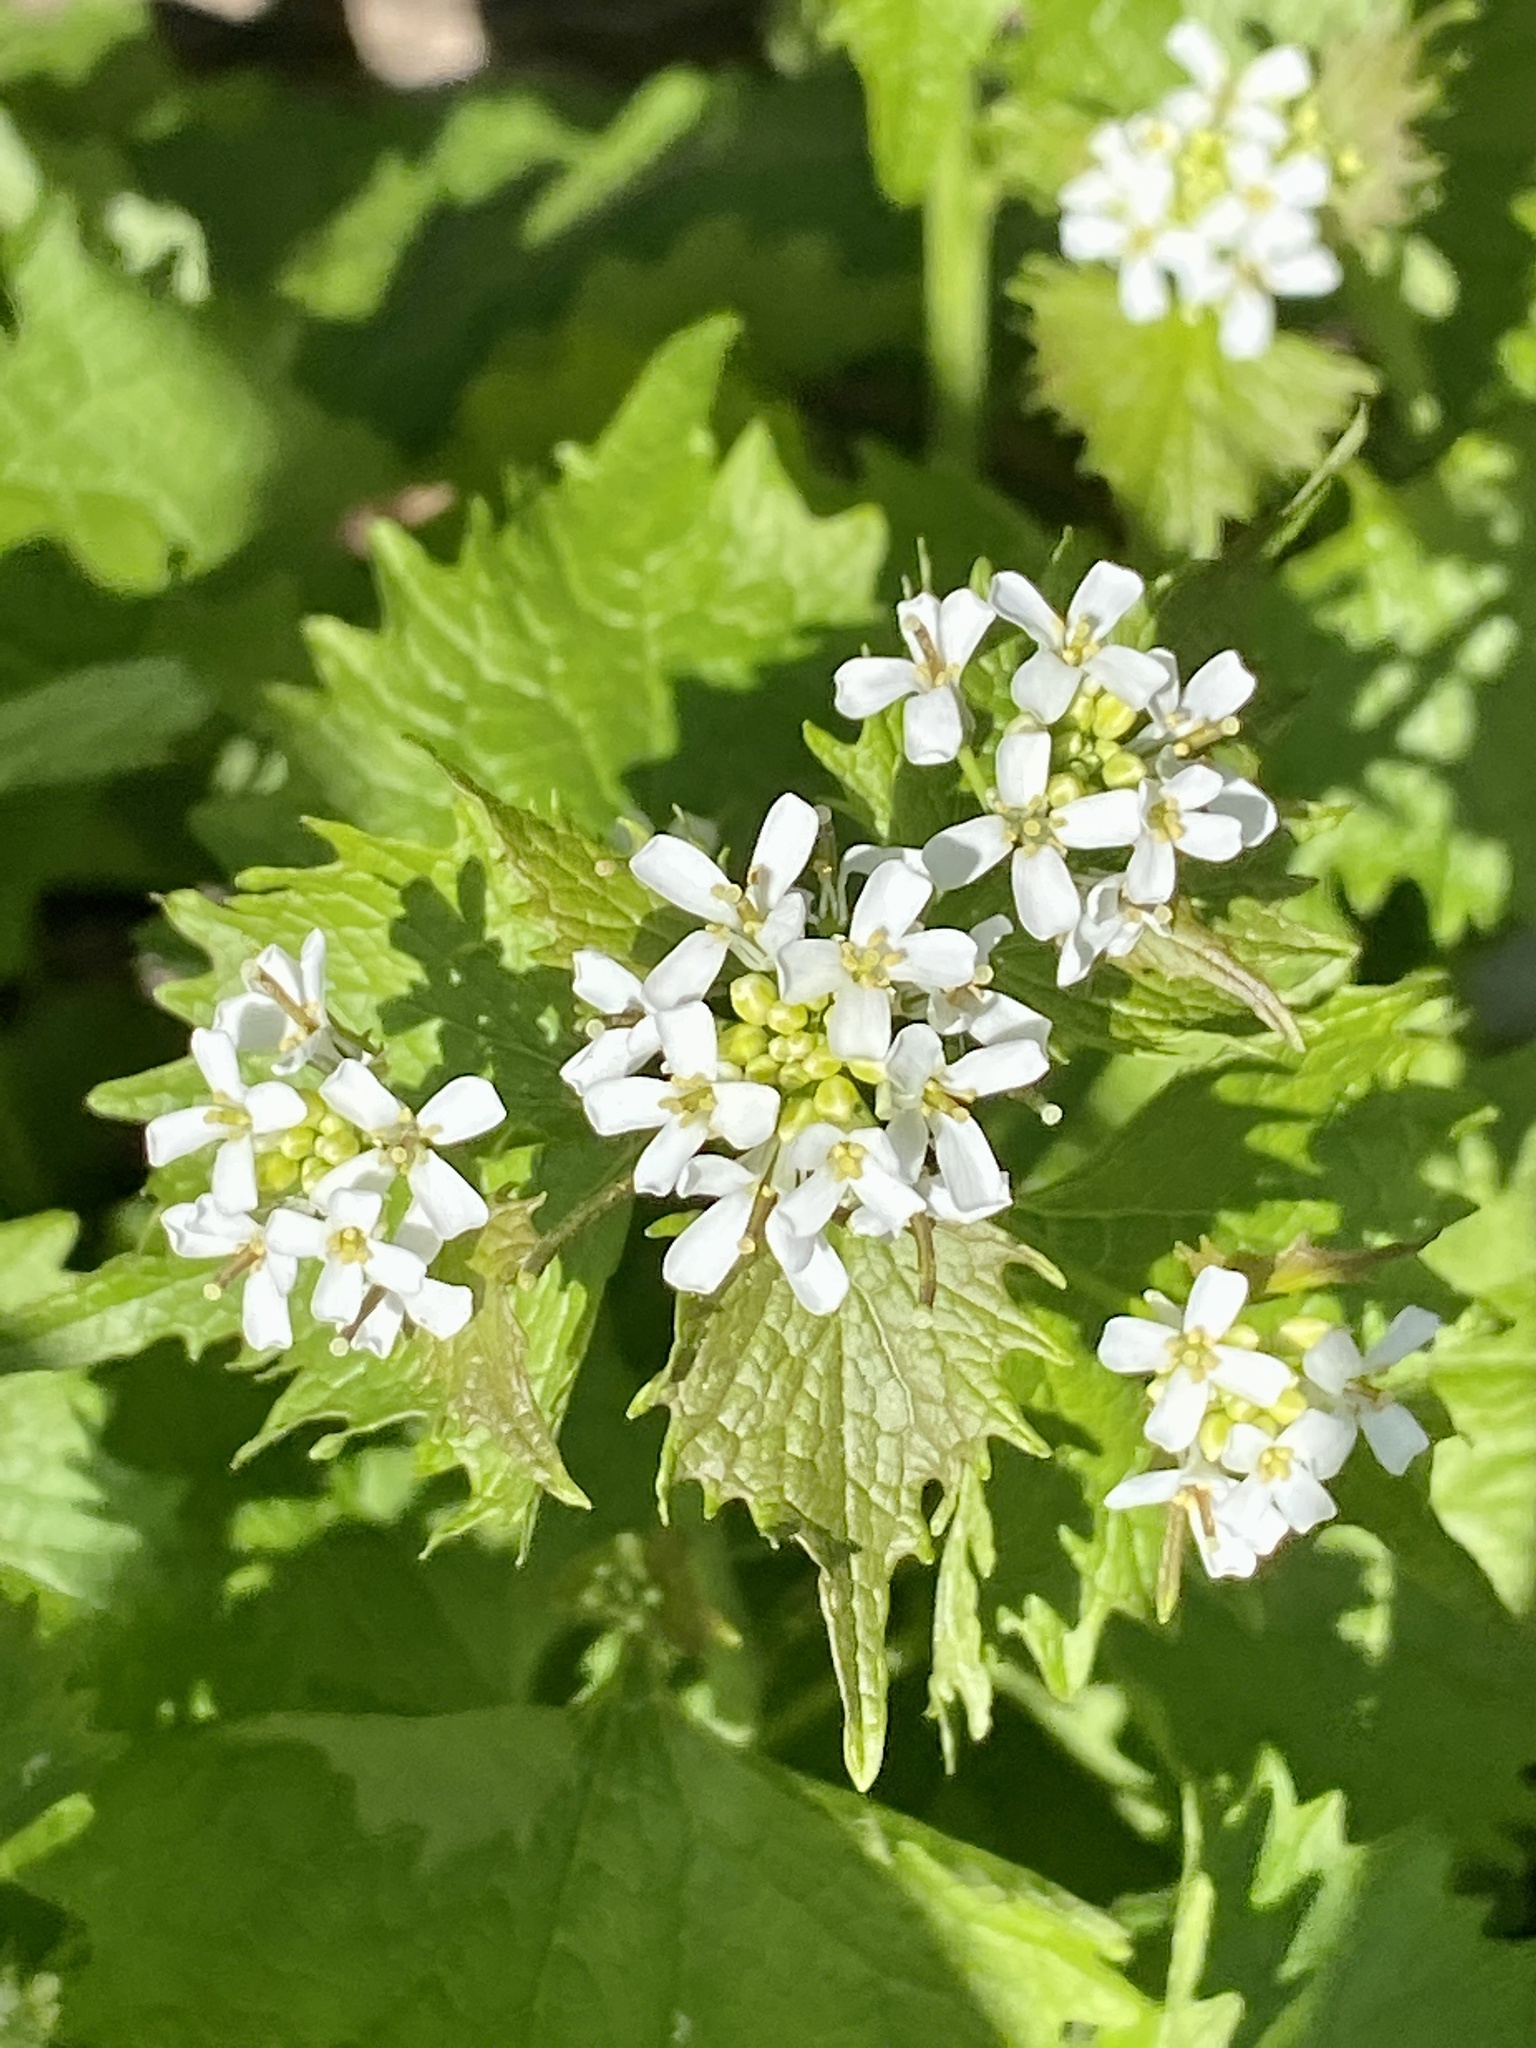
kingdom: Plantae
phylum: Tracheophyta
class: Magnoliopsida
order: Brassicales
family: Brassicaceae
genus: Alliaria
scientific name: Alliaria petiolata
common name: Garlic mustard
